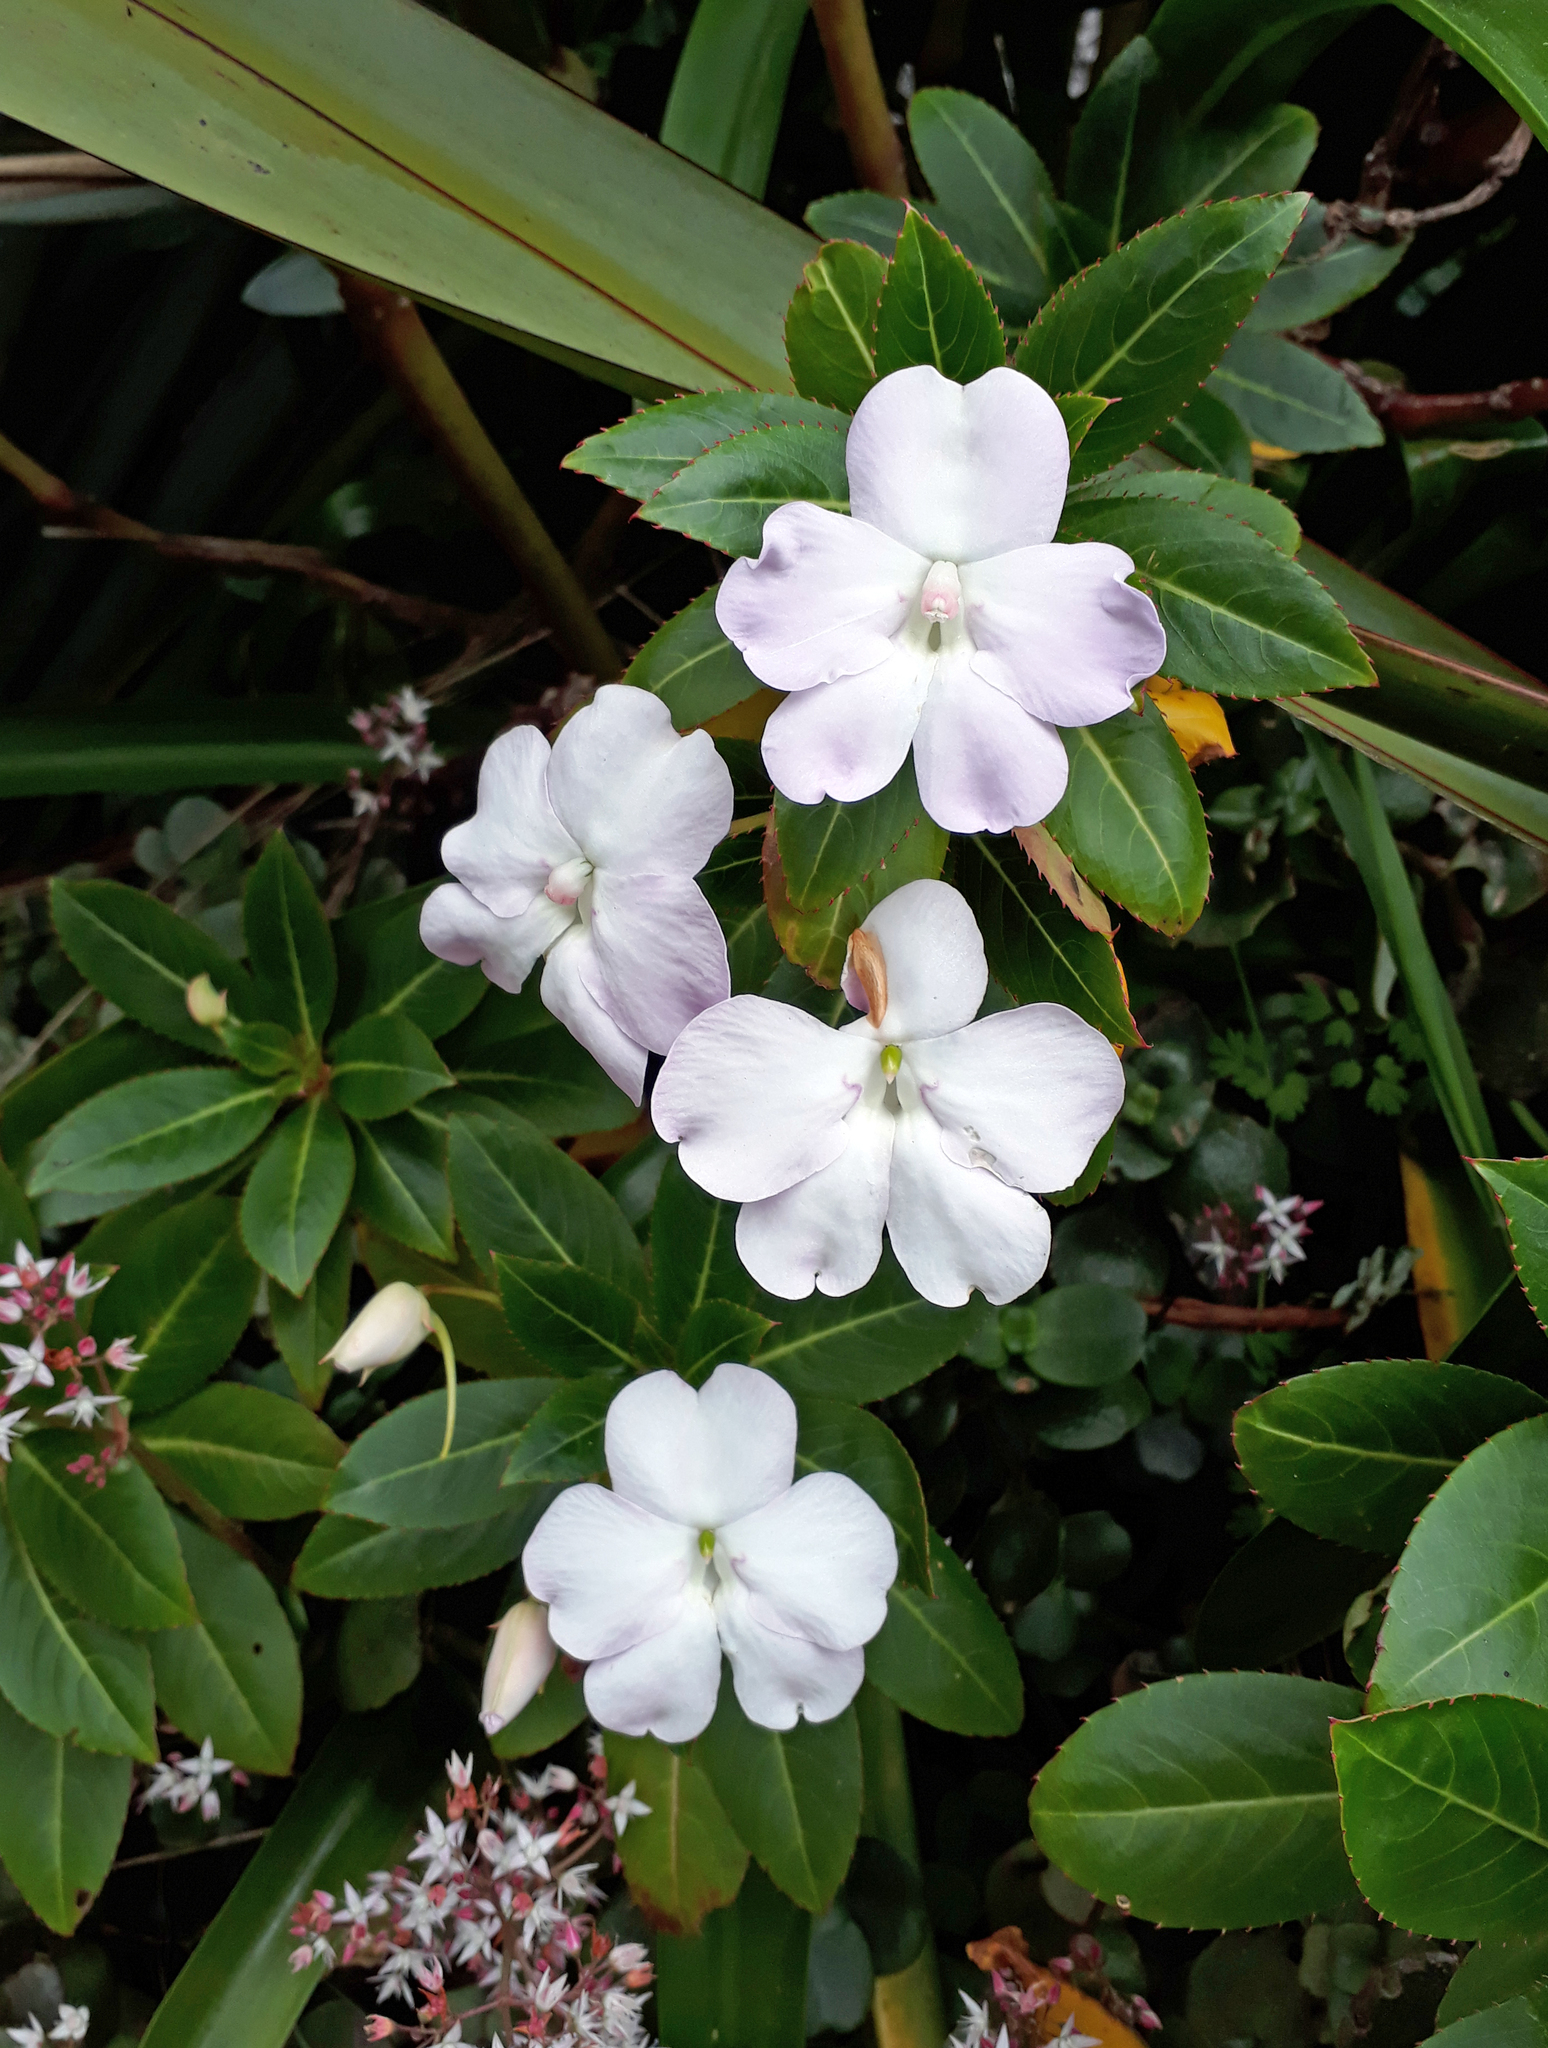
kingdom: Plantae
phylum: Tracheophyta
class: Magnoliopsida
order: Ericales
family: Balsaminaceae
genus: Impatiens
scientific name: Impatiens sodenii
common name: Oliver's touch-me-not
